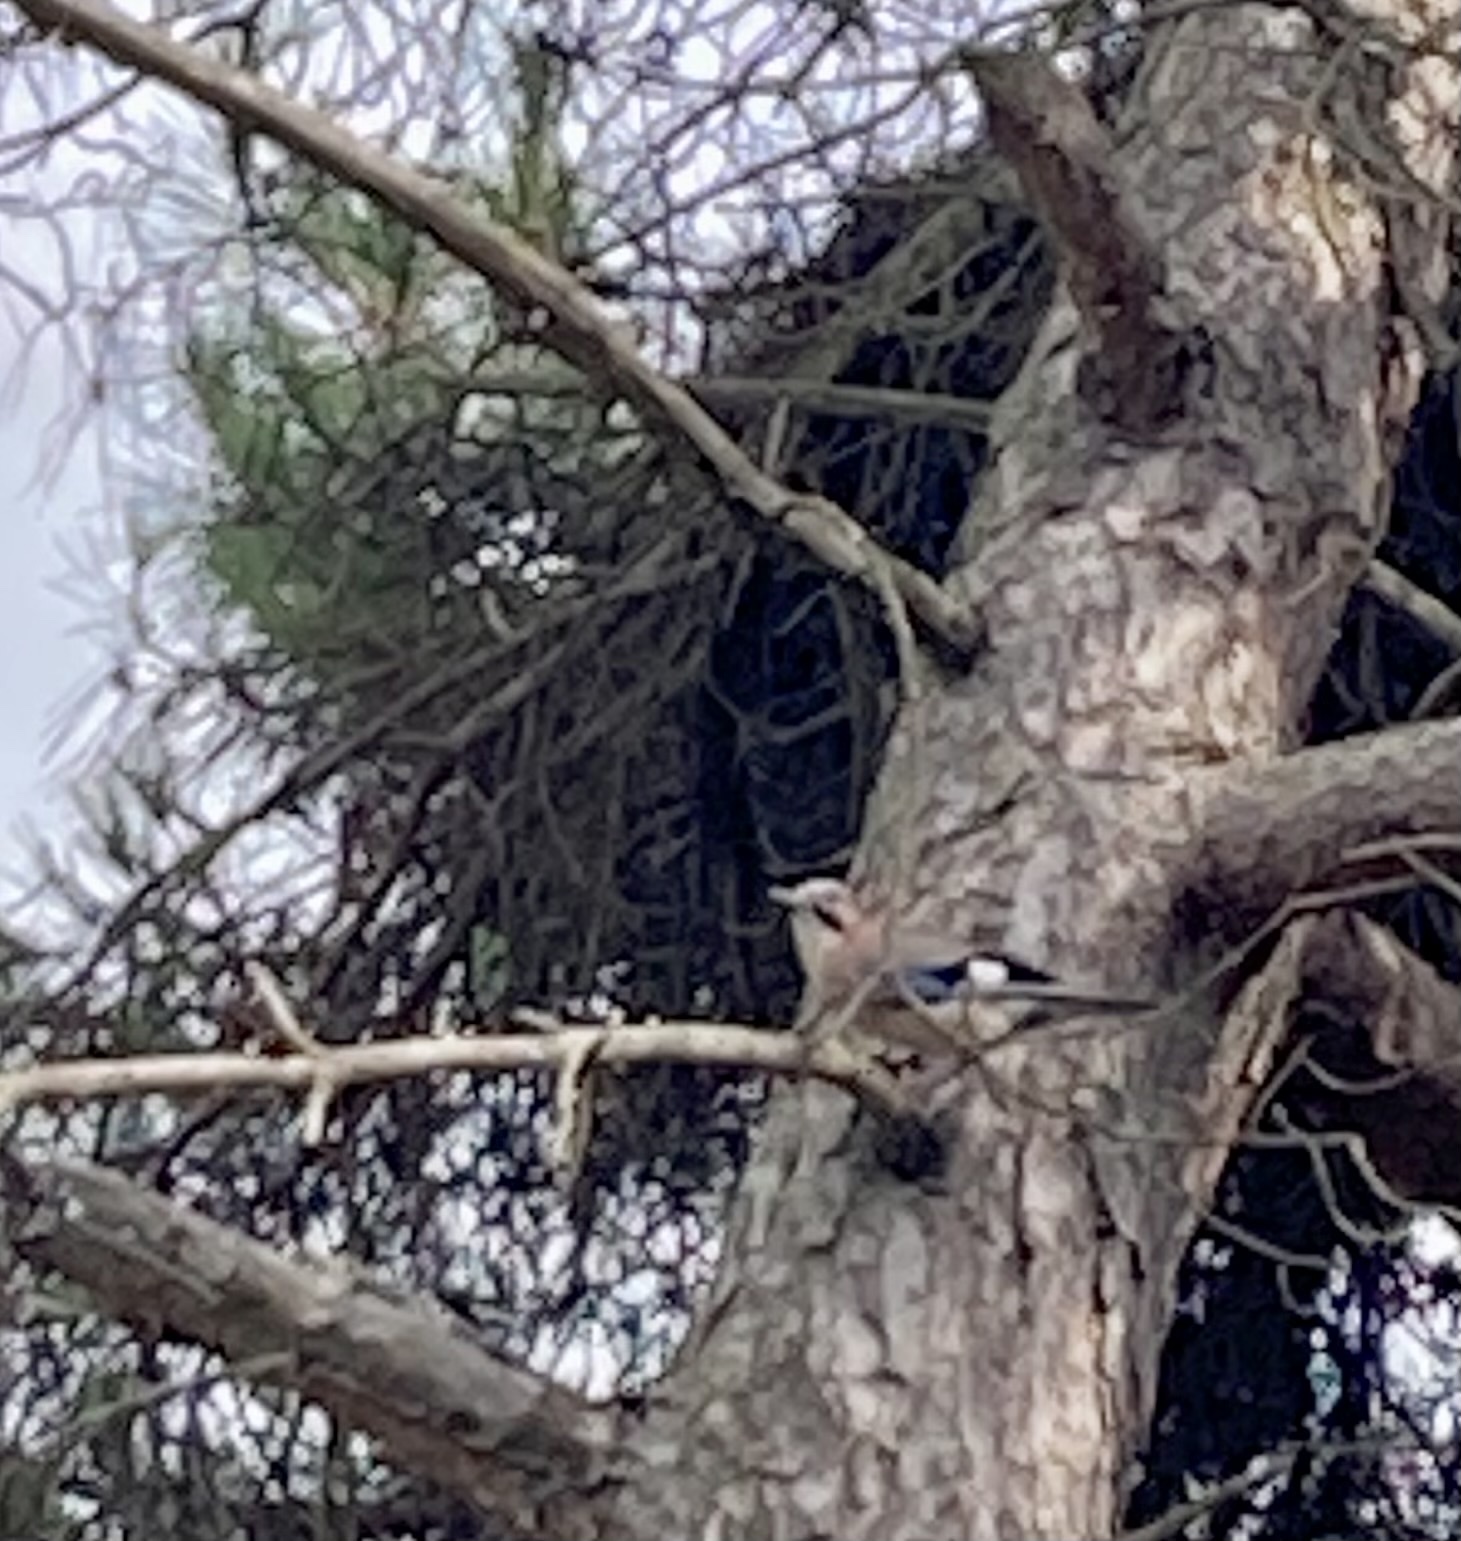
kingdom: Animalia
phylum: Chordata
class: Aves
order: Passeriformes
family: Corvidae
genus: Garrulus
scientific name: Garrulus glandarius
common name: Eurasian jay
